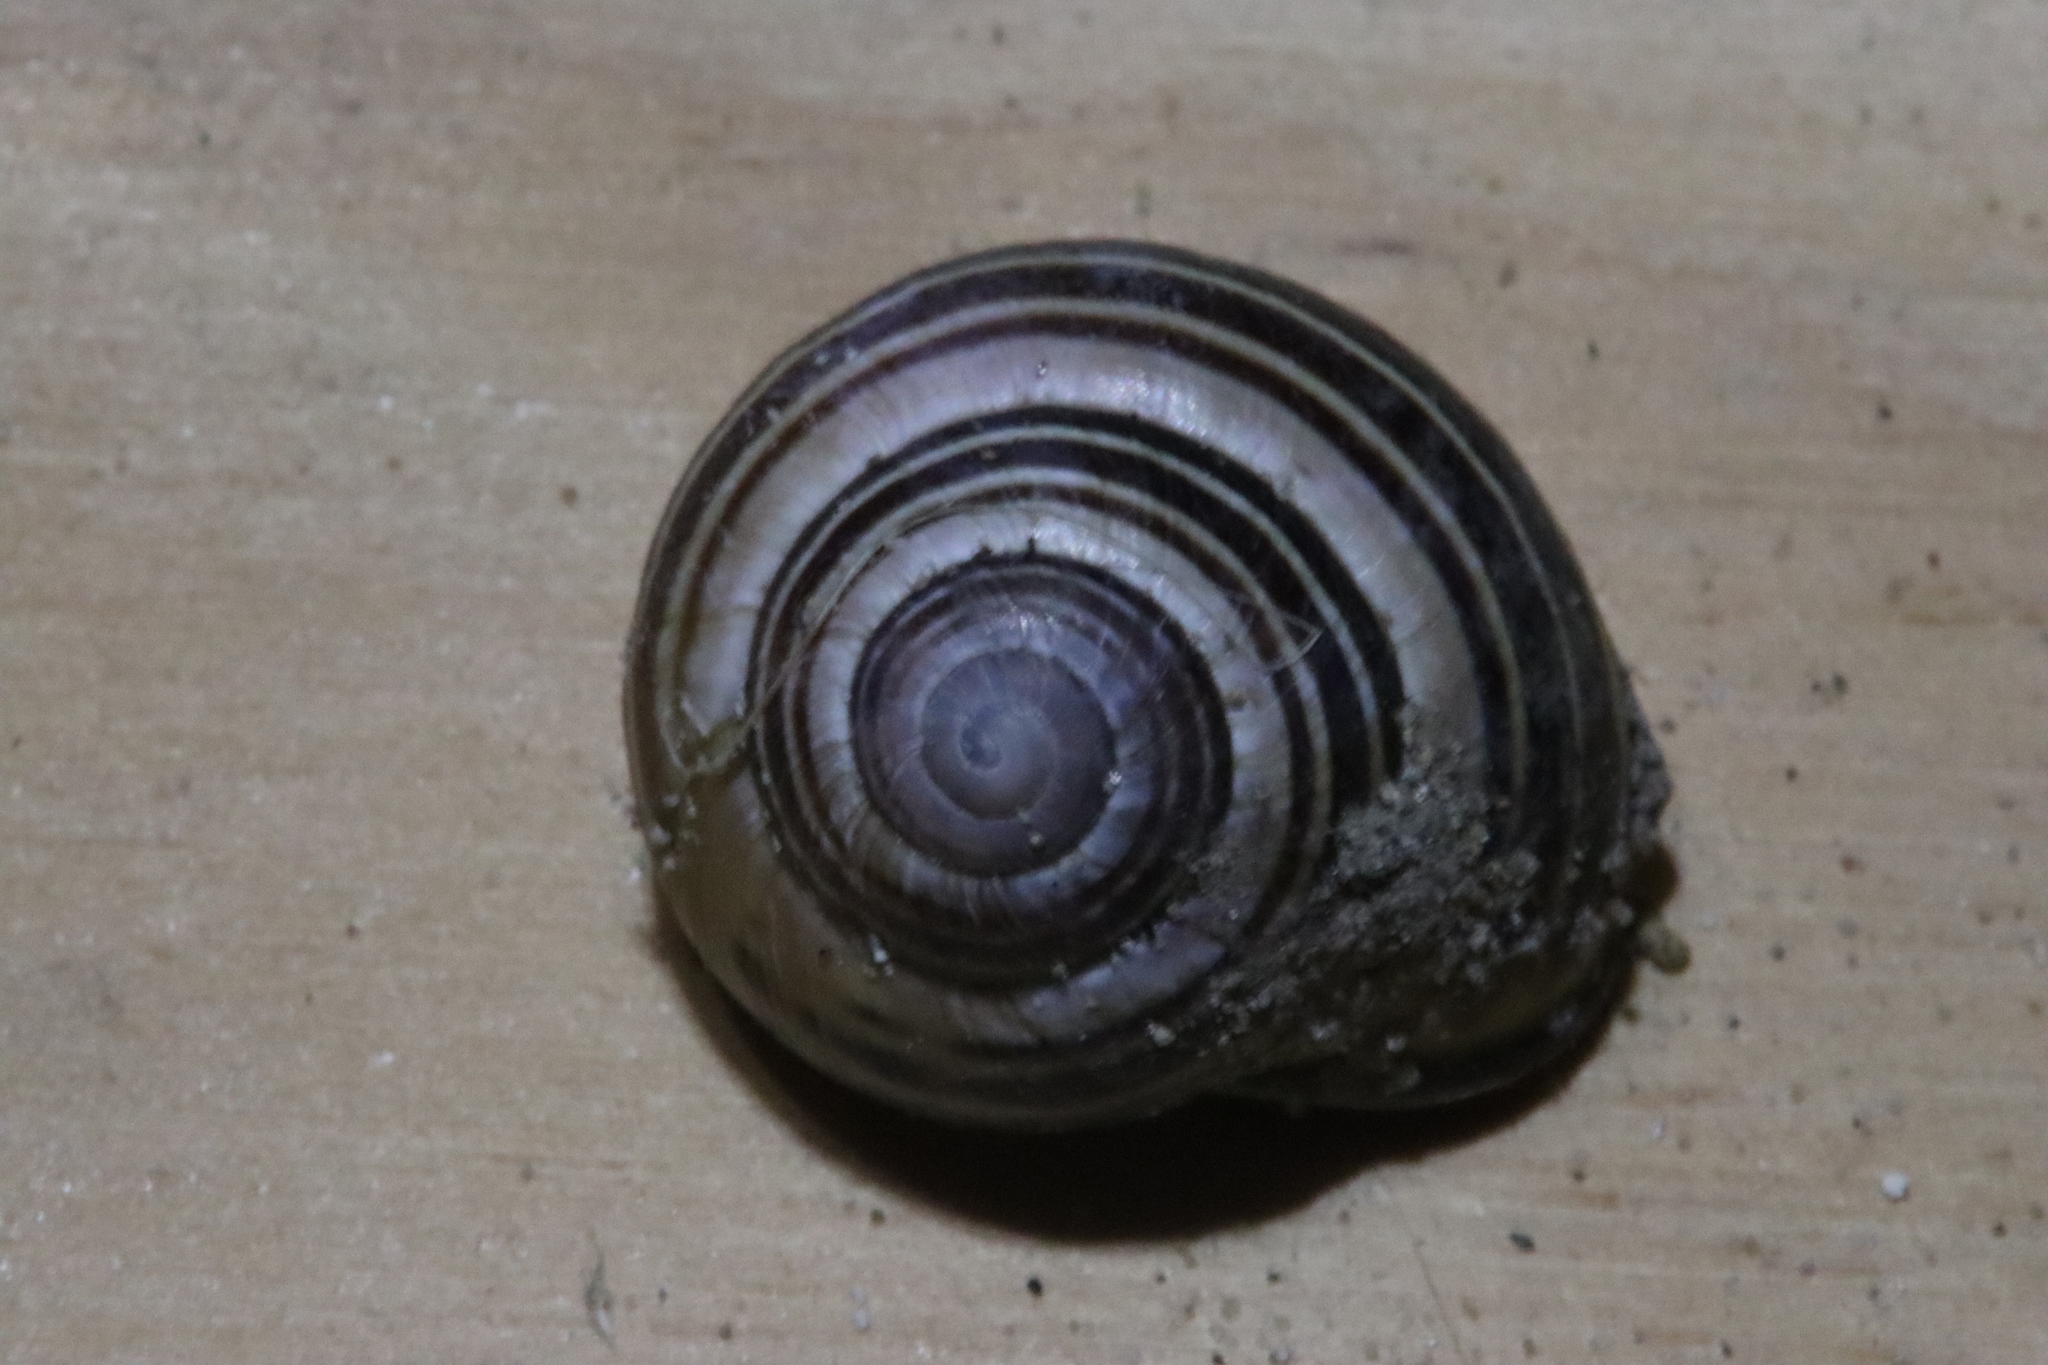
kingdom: Animalia
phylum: Mollusca
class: Gastropoda
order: Stylommatophora
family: Helicidae
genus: Cepaea
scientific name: Cepaea nemoralis
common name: Grovesnail
